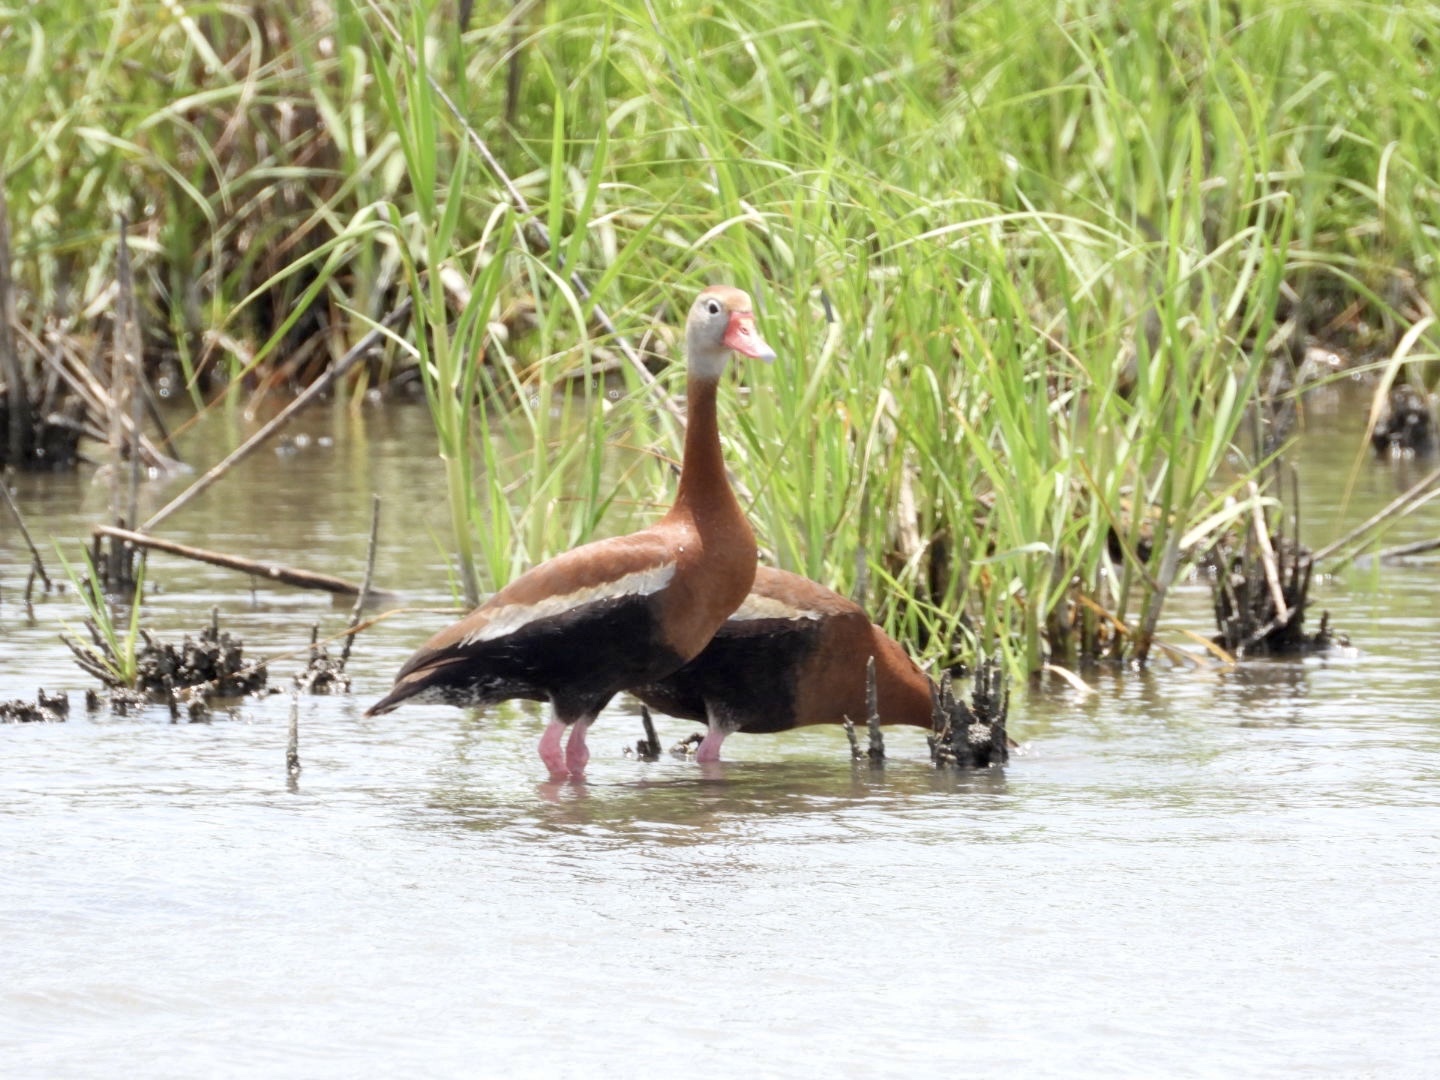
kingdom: Animalia
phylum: Chordata
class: Aves
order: Anseriformes
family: Anatidae
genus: Dendrocygna
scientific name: Dendrocygna autumnalis
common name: Black-bellied whistling duck
